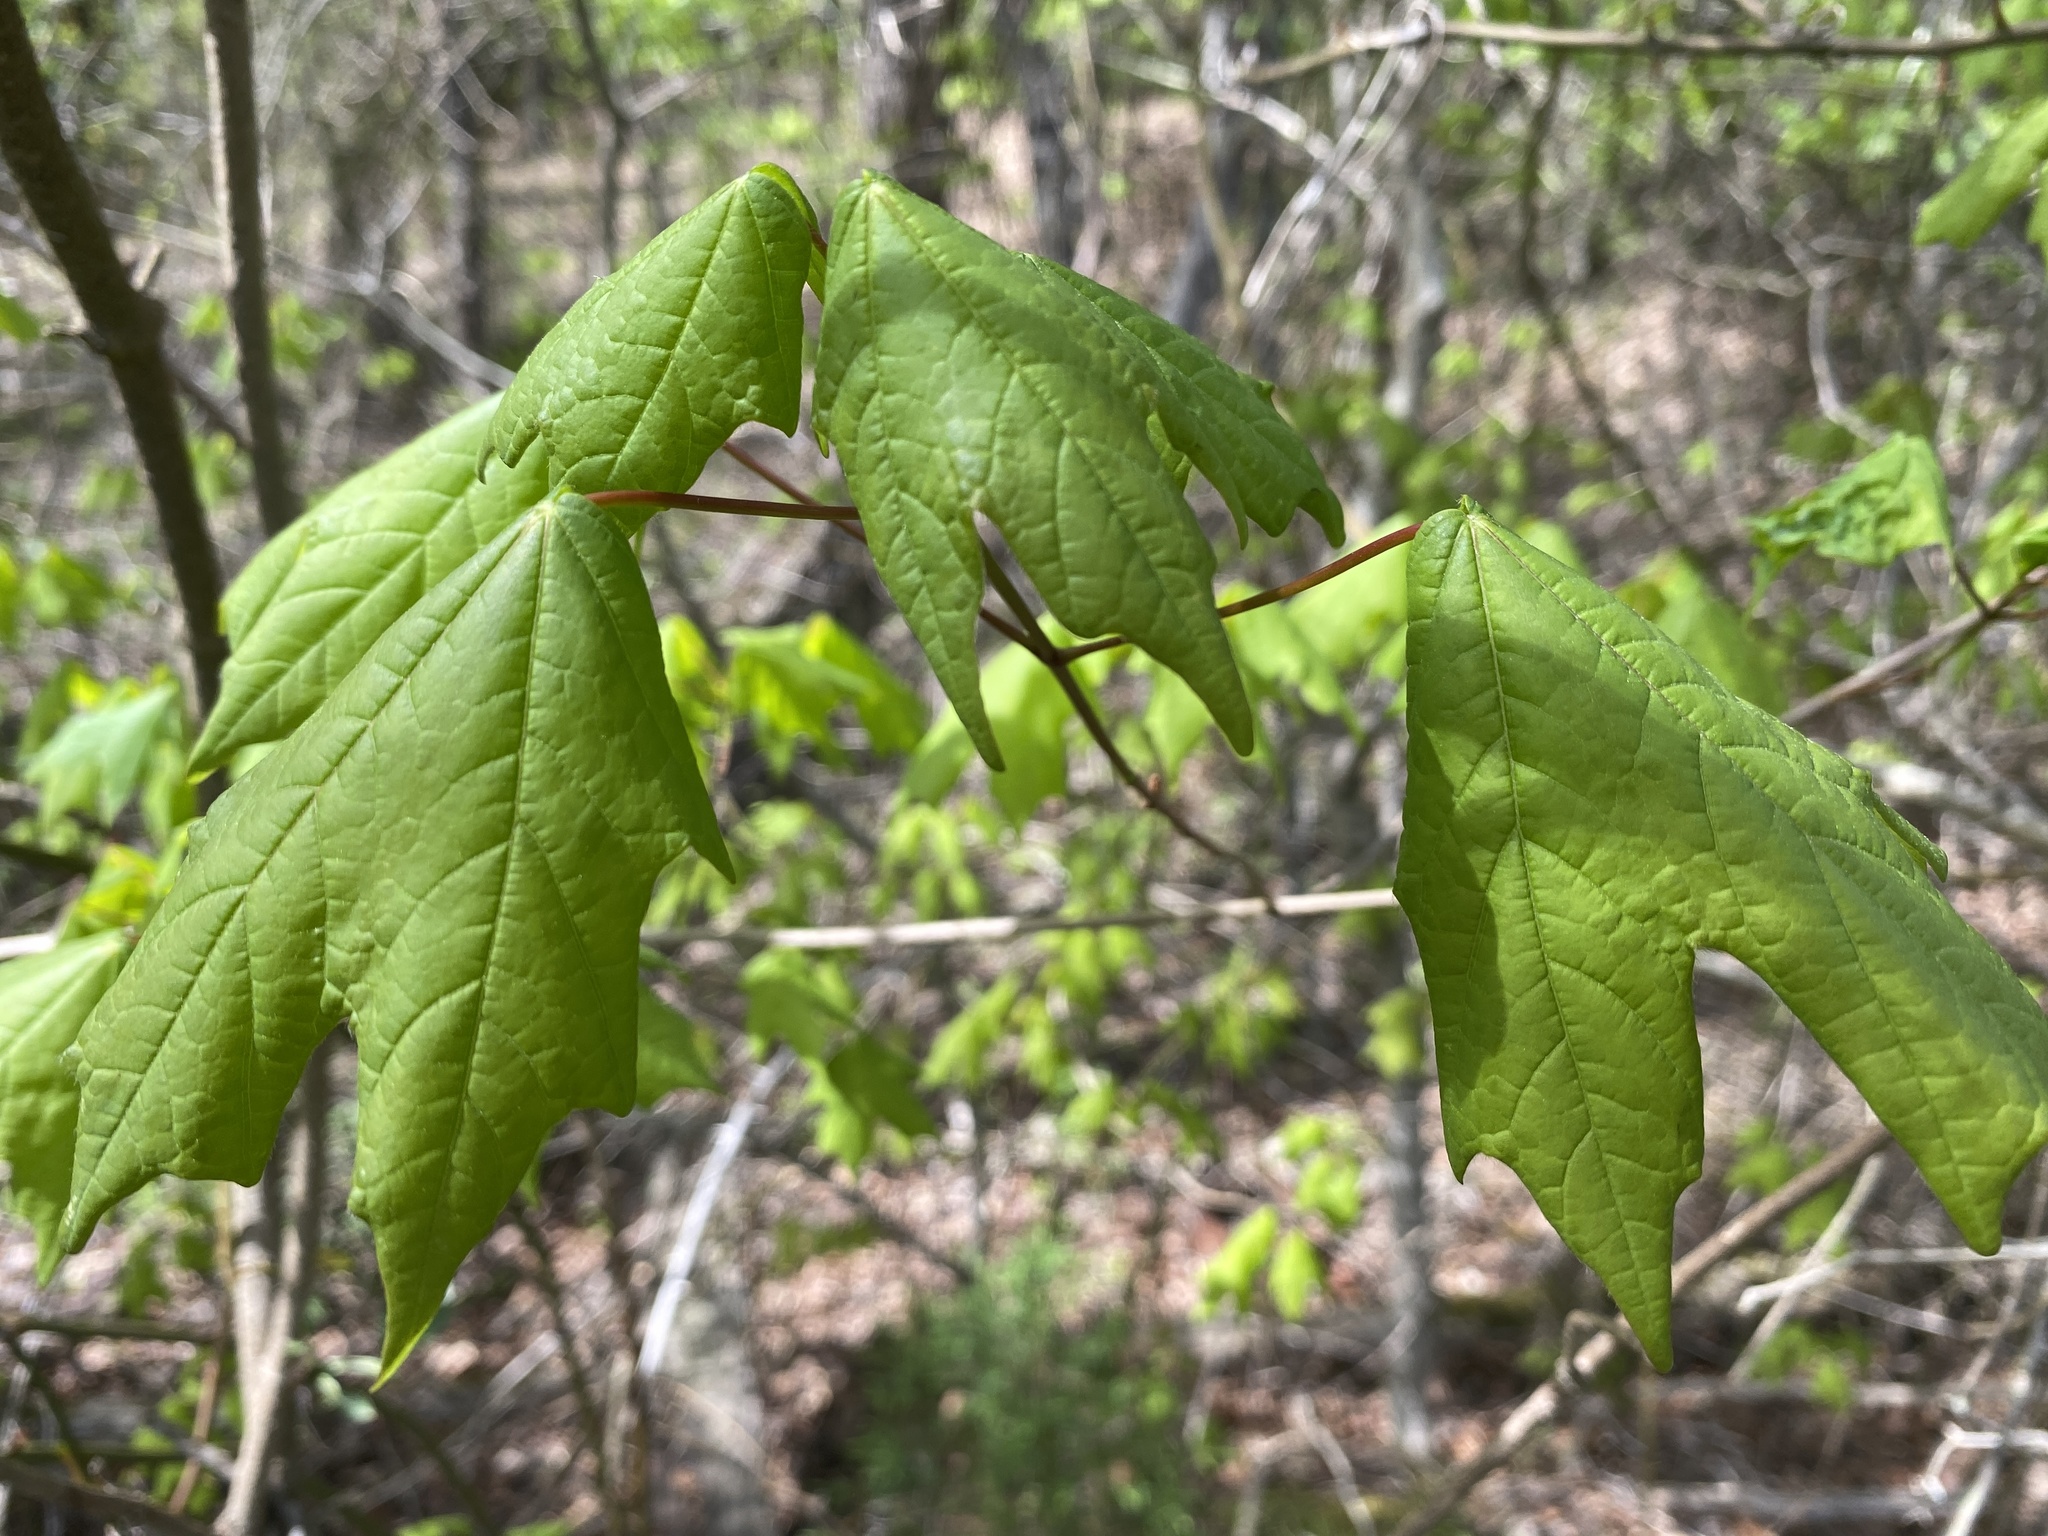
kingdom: Plantae
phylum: Tracheophyta
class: Magnoliopsida
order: Sapindales
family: Sapindaceae
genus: Acer
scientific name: Acer leucoderme
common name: Chalk maple
